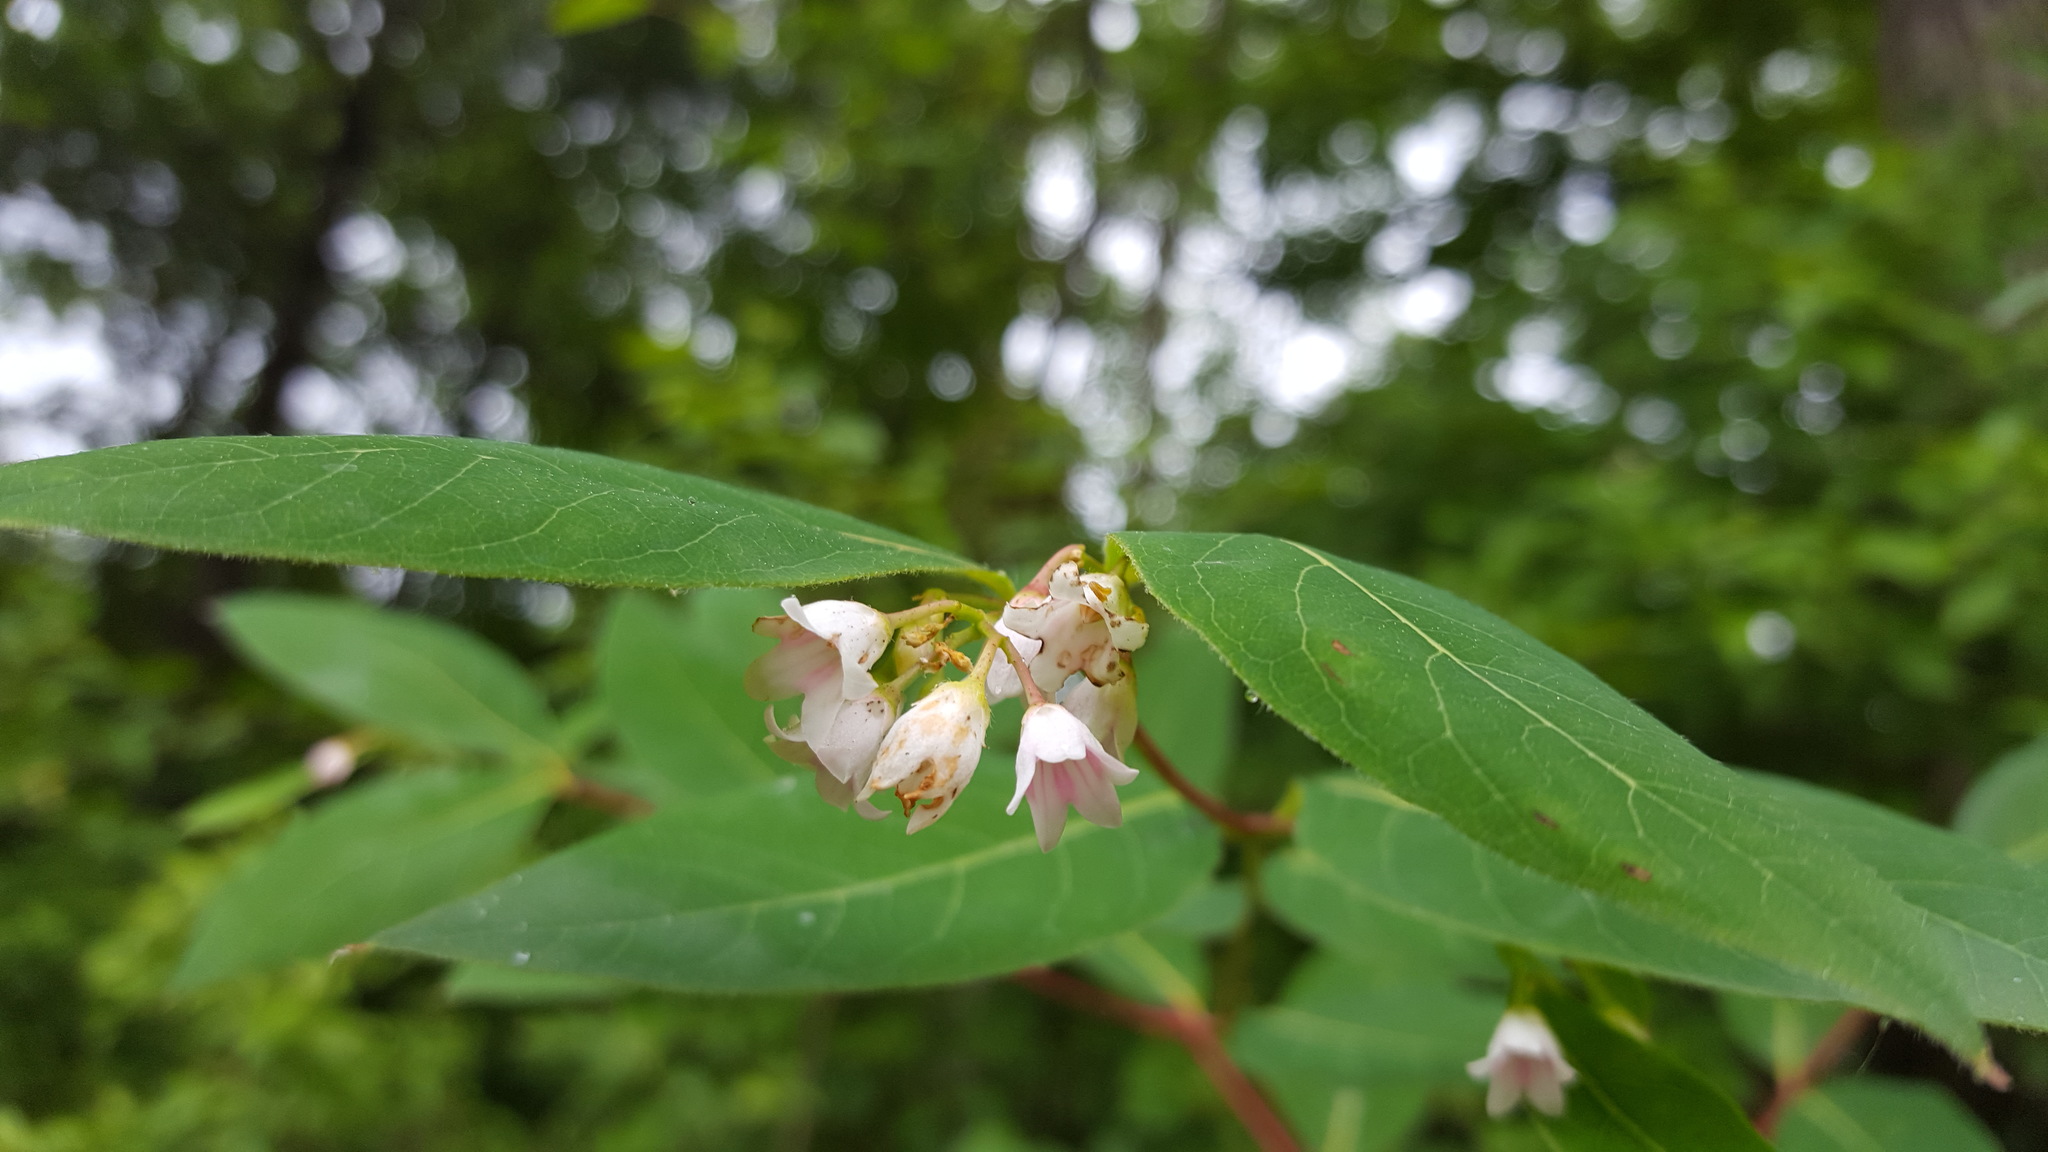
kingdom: Plantae
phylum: Tracheophyta
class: Magnoliopsida
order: Gentianales
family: Apocynaceae
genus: Apocynum
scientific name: Apocynum androsaemifolium
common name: Spreading dogbane
